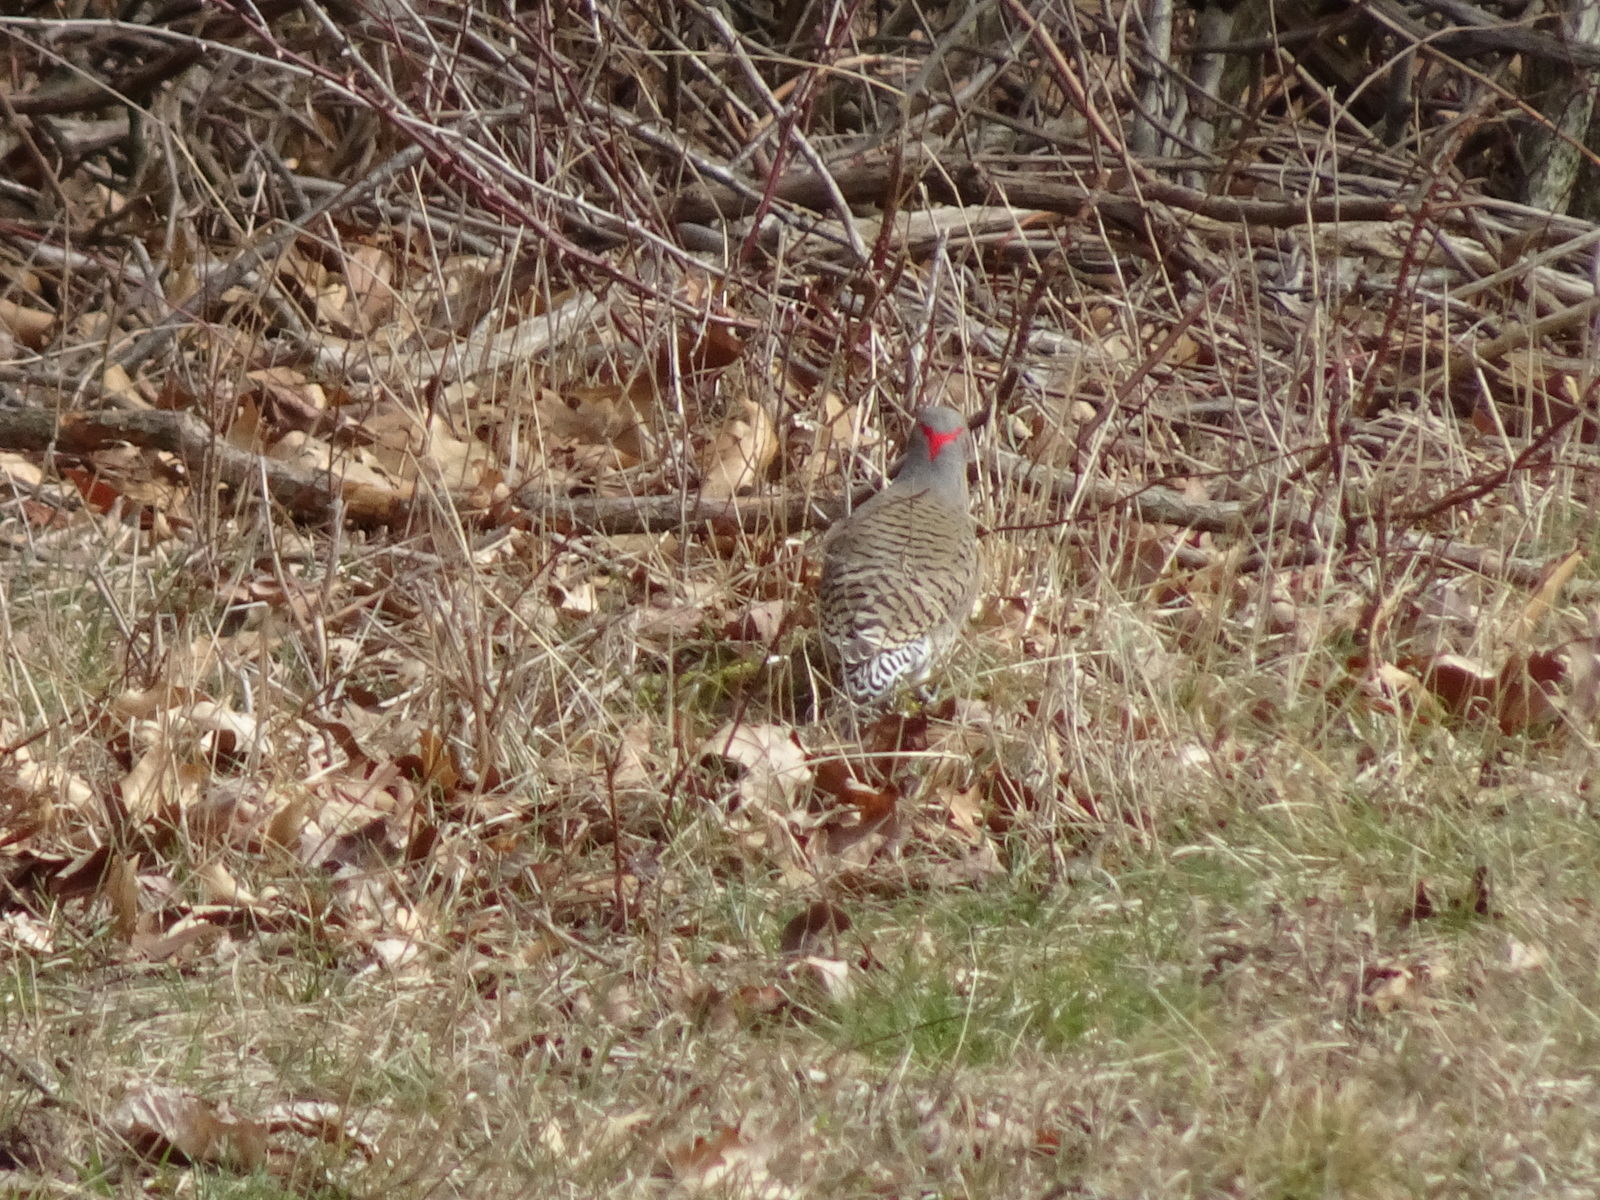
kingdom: Animalia
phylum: Chordata
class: Aves
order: Piciformes
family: Picidae
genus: Colaptes
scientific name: Colaptes auratus
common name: Northern flicker
